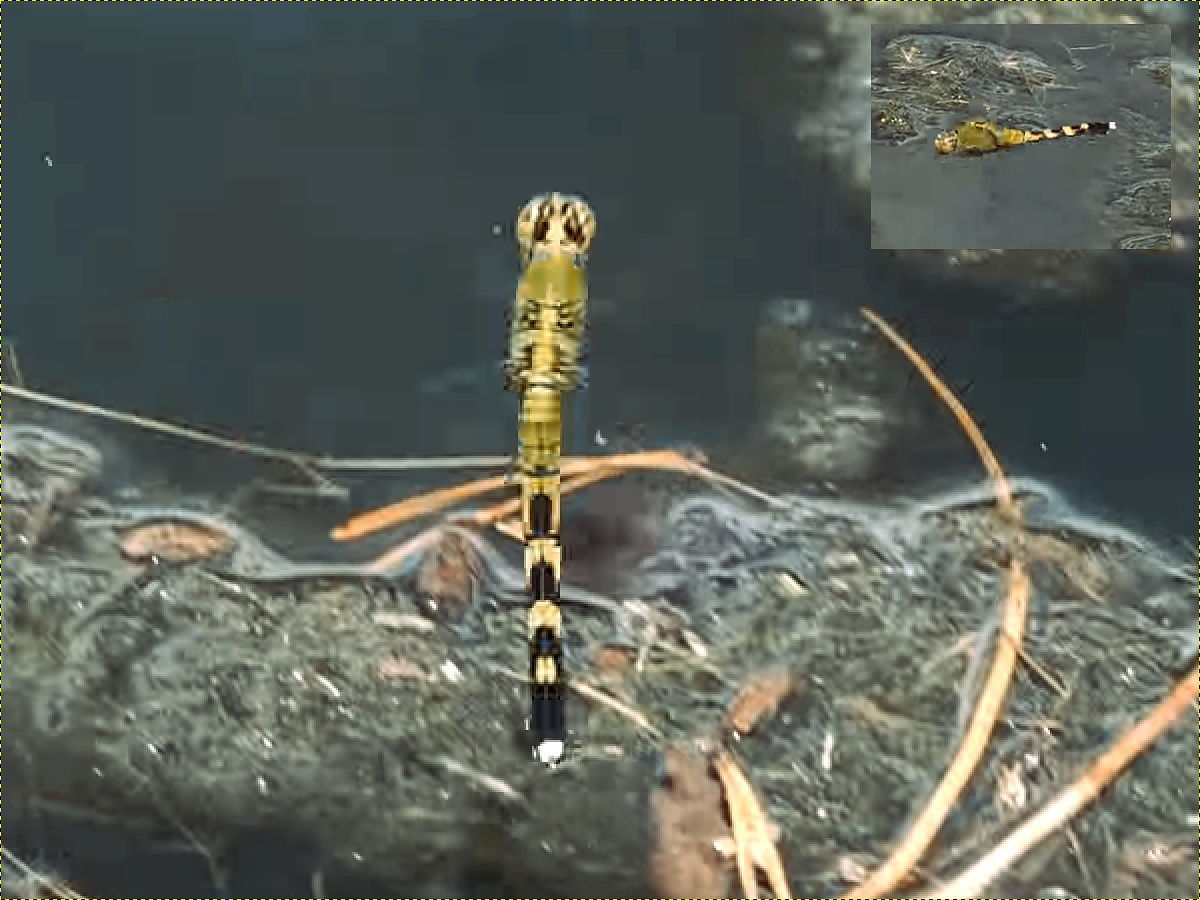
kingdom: Animalia
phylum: Arthropoda
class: Insecta
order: Odonata
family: Libellulidae
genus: Erythemis
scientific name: Erythemis simplicicollis
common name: Eastern pondhawk
